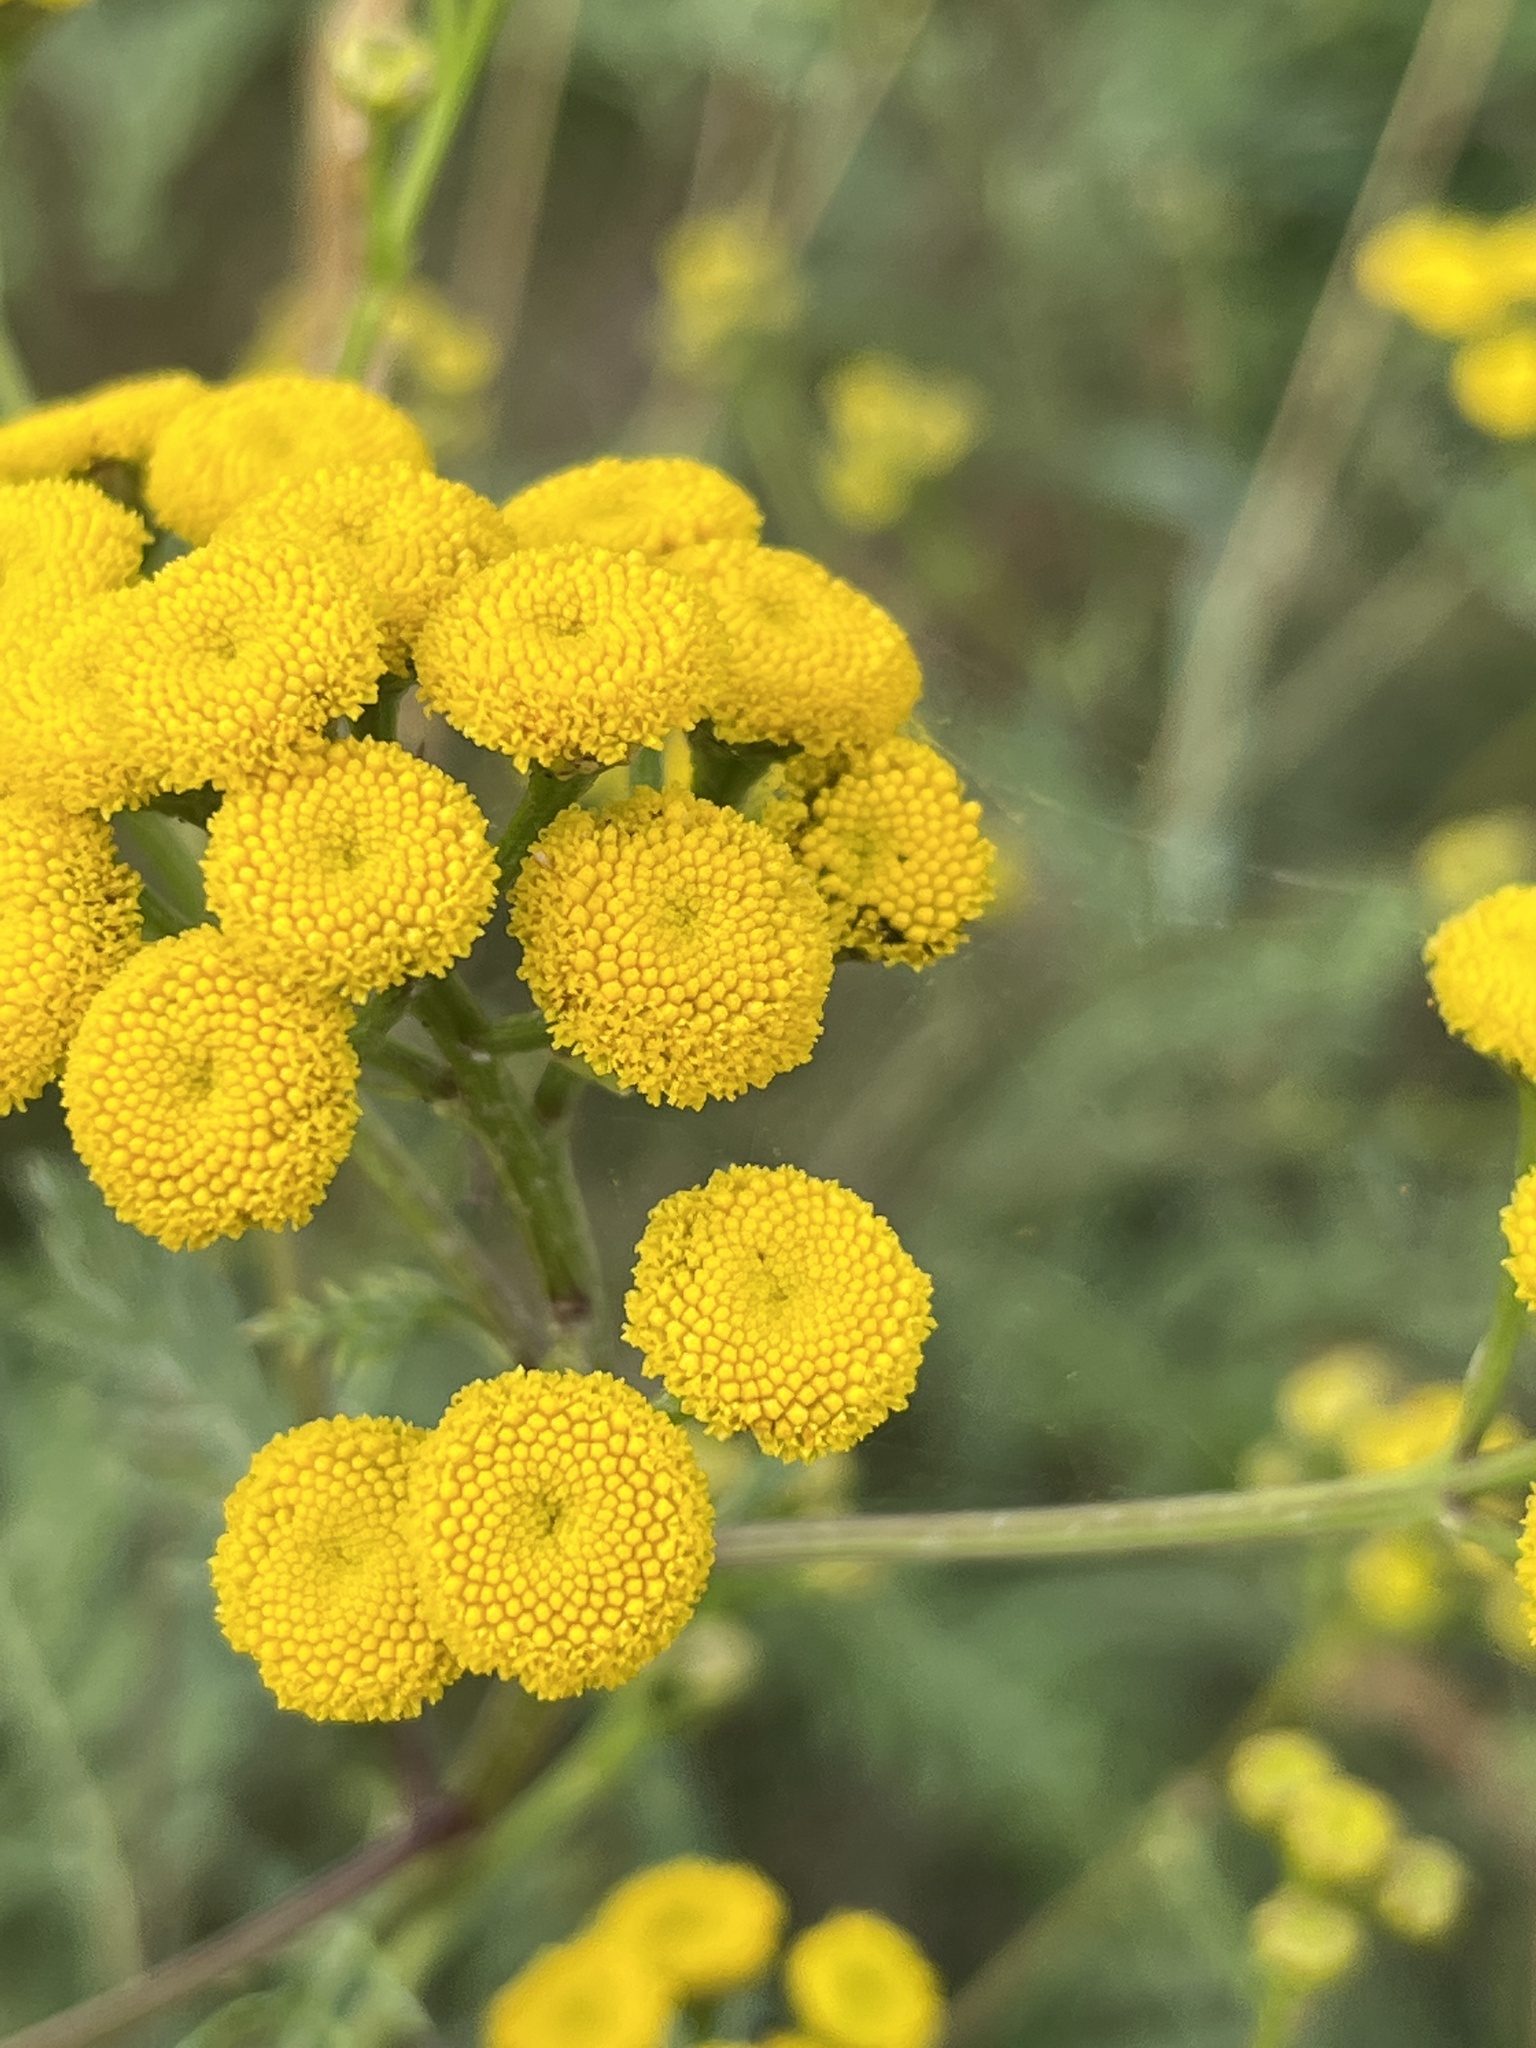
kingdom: Plantae
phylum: Tracheophyta
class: Magnoliopsida
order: Asterales
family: Asteraceae
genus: Tanacetum
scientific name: Tanacetum vulgare
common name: Common tansy
